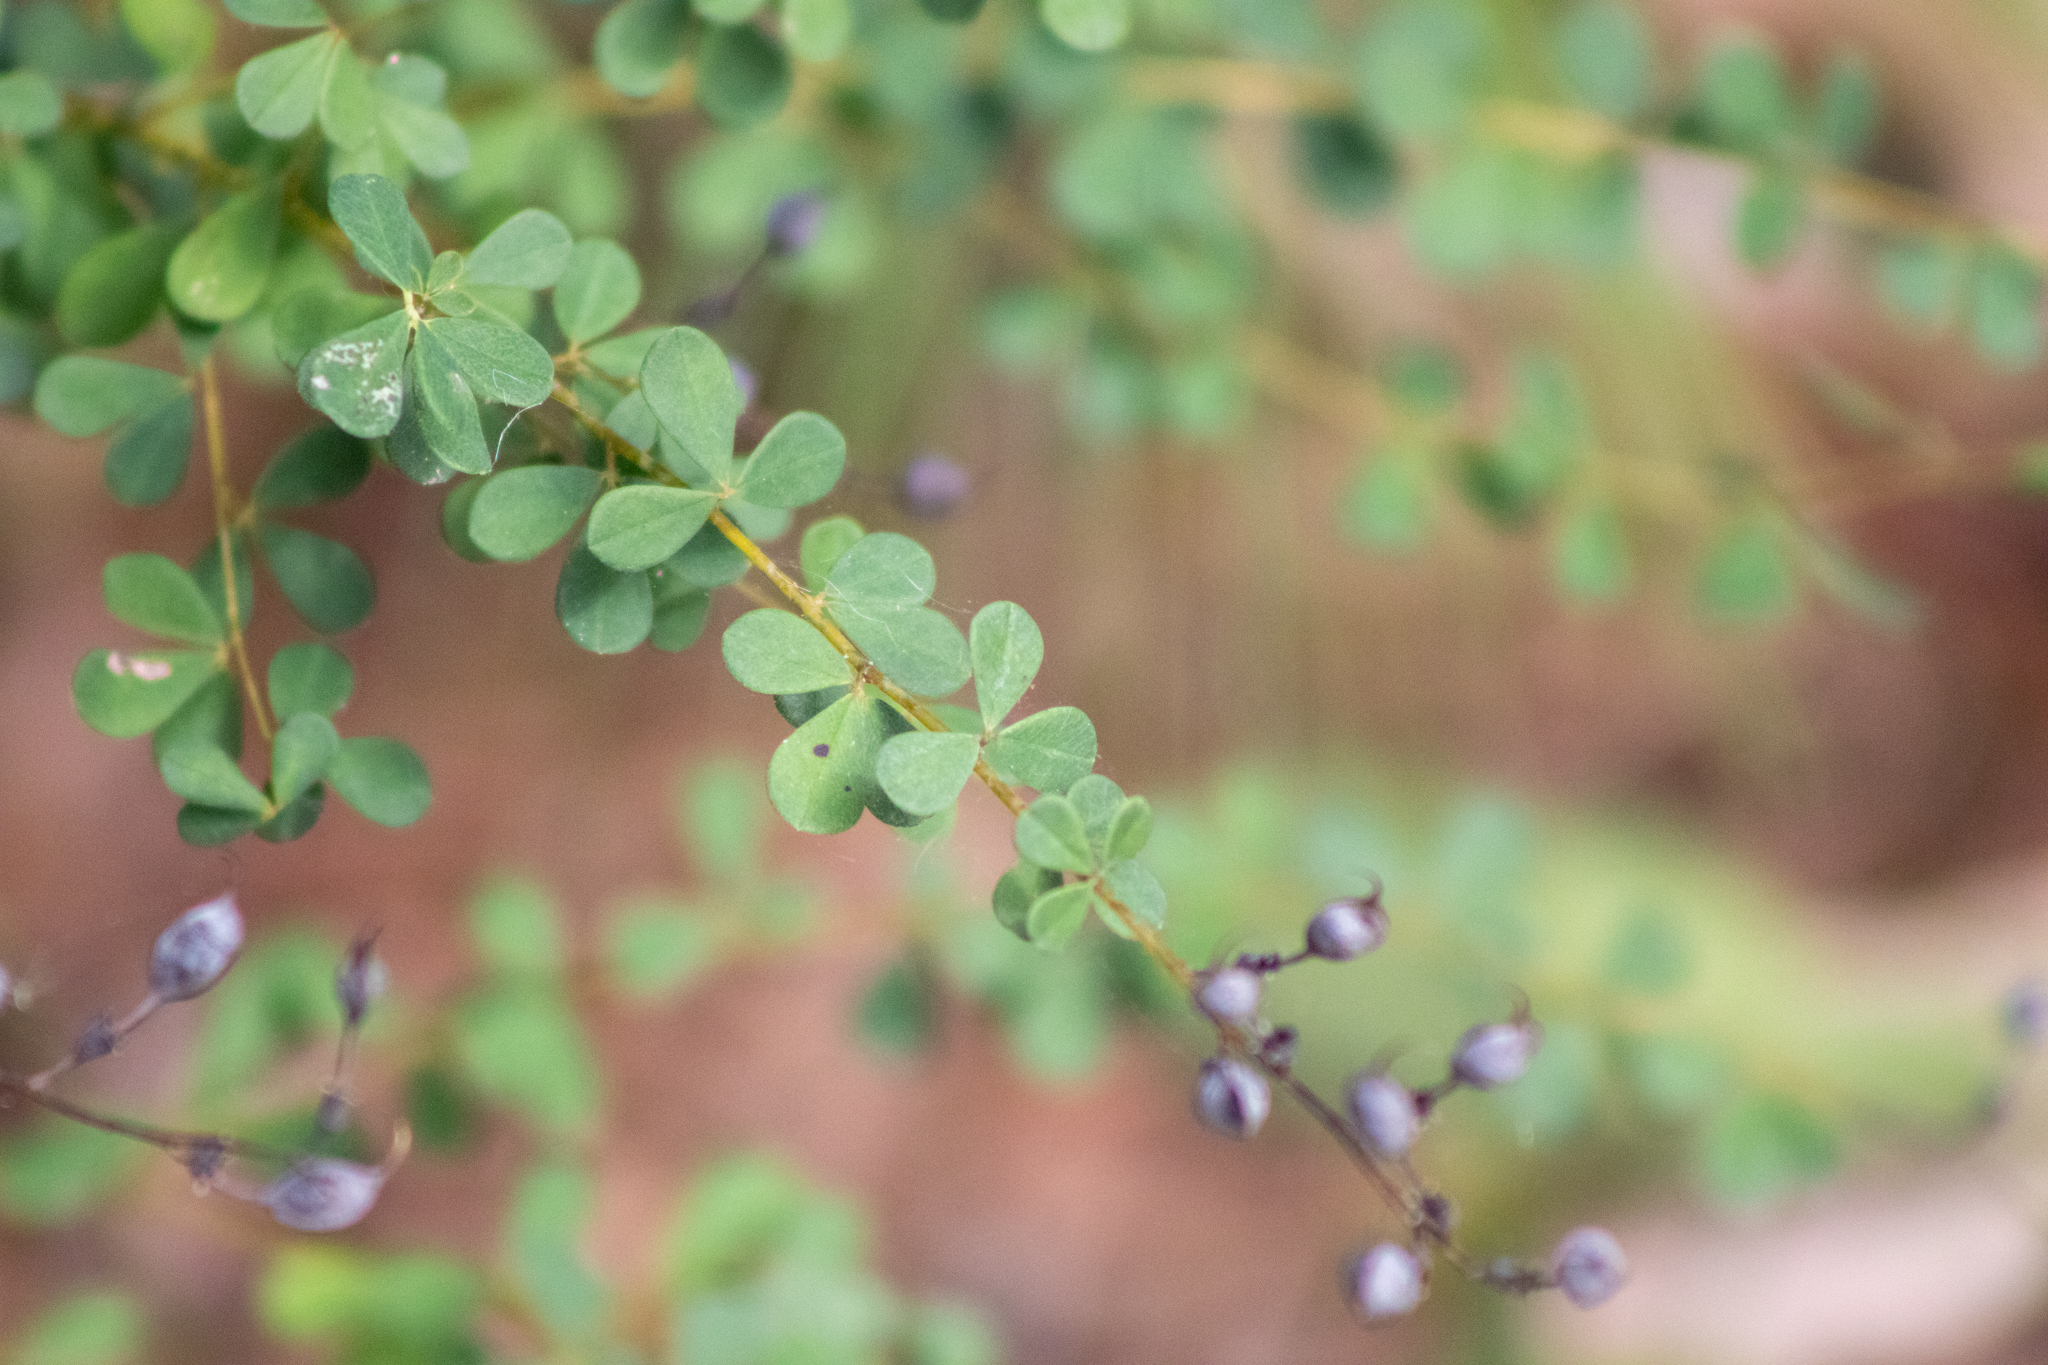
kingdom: Plantae
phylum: Tracheophyta
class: Magnoliopsida
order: Fabales
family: Fabaceae
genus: Baptisia
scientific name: Baptisia tinctoria
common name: Wild indigo
